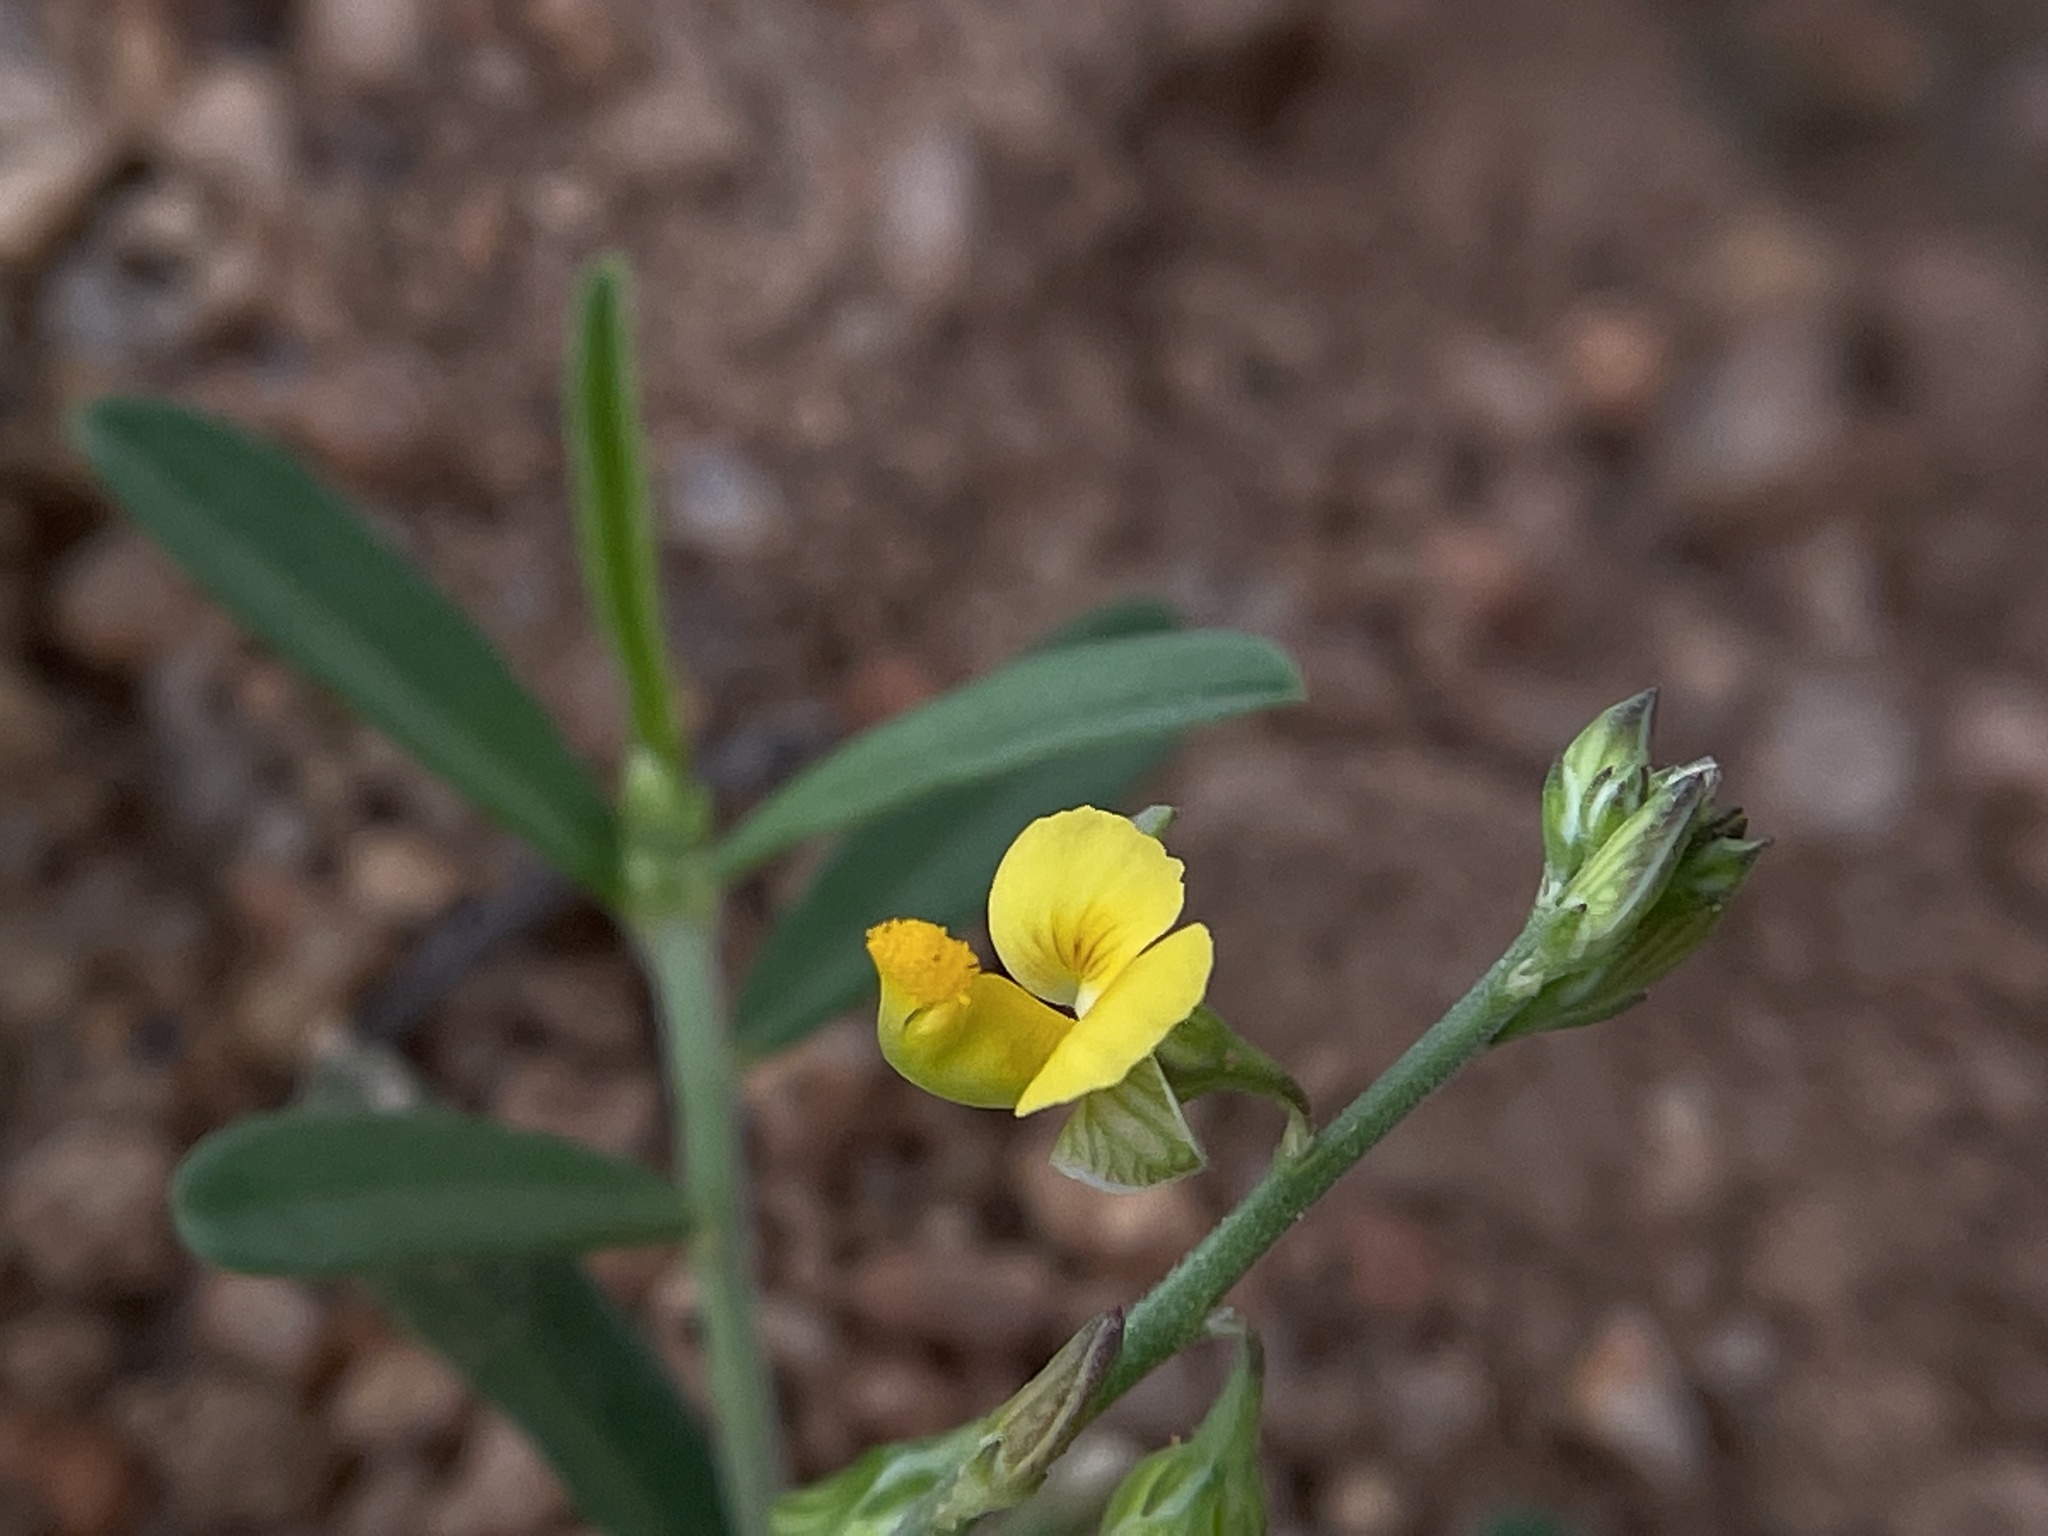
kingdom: Plantae
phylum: Tracheophyta
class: Magnoliopsida
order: Fabales
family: Polygalaceae
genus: Polygala
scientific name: Polygala
